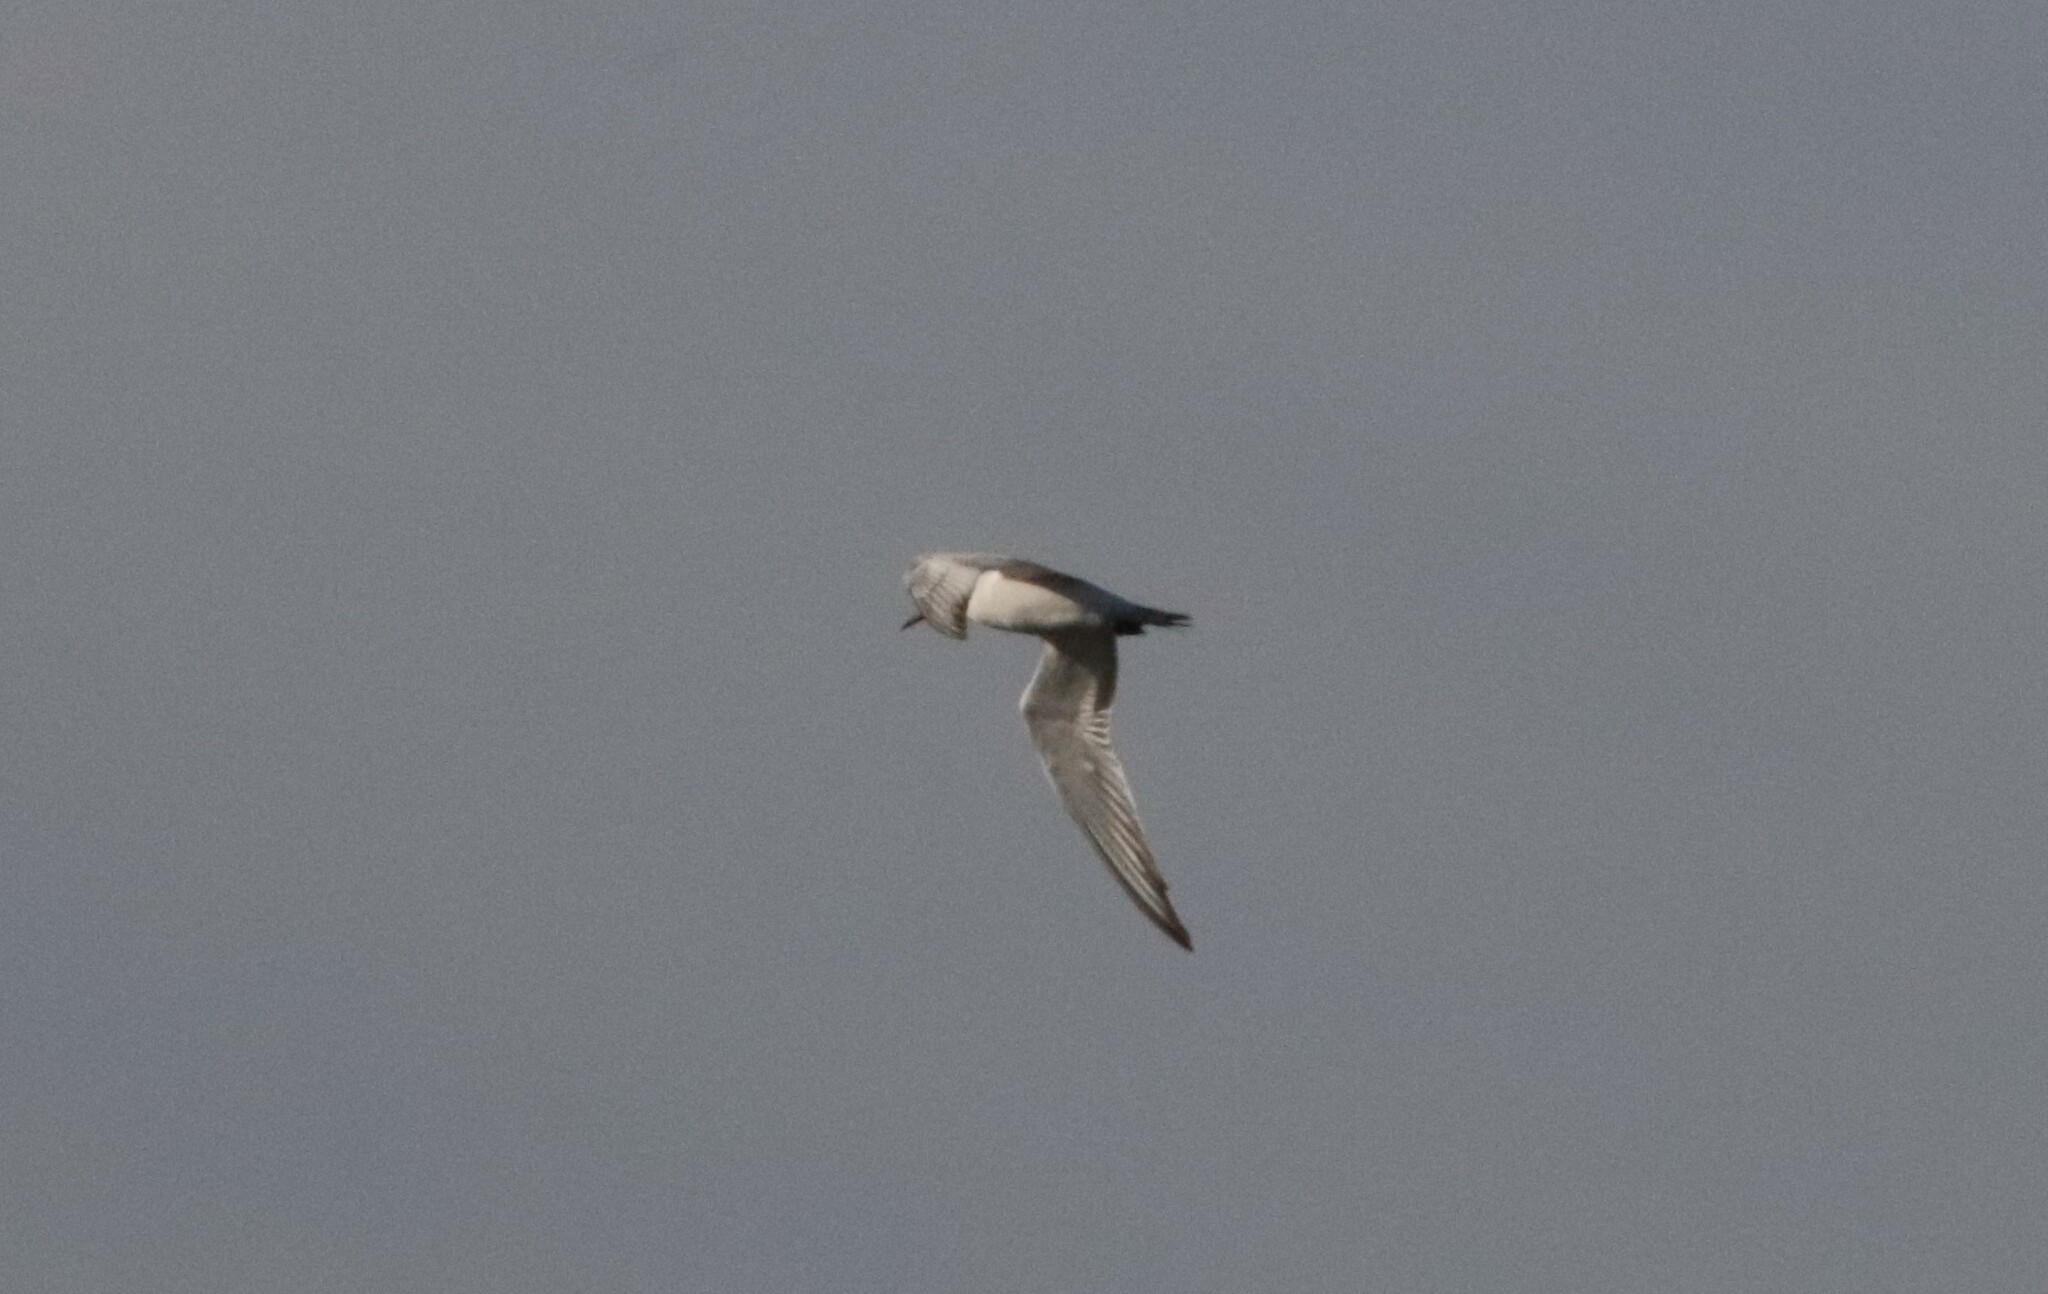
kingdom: Animalia
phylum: Chordata
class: Aves
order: Charadriiformes
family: Laridae
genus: Sterna
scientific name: Sterna forsteri
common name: Forster's tern
